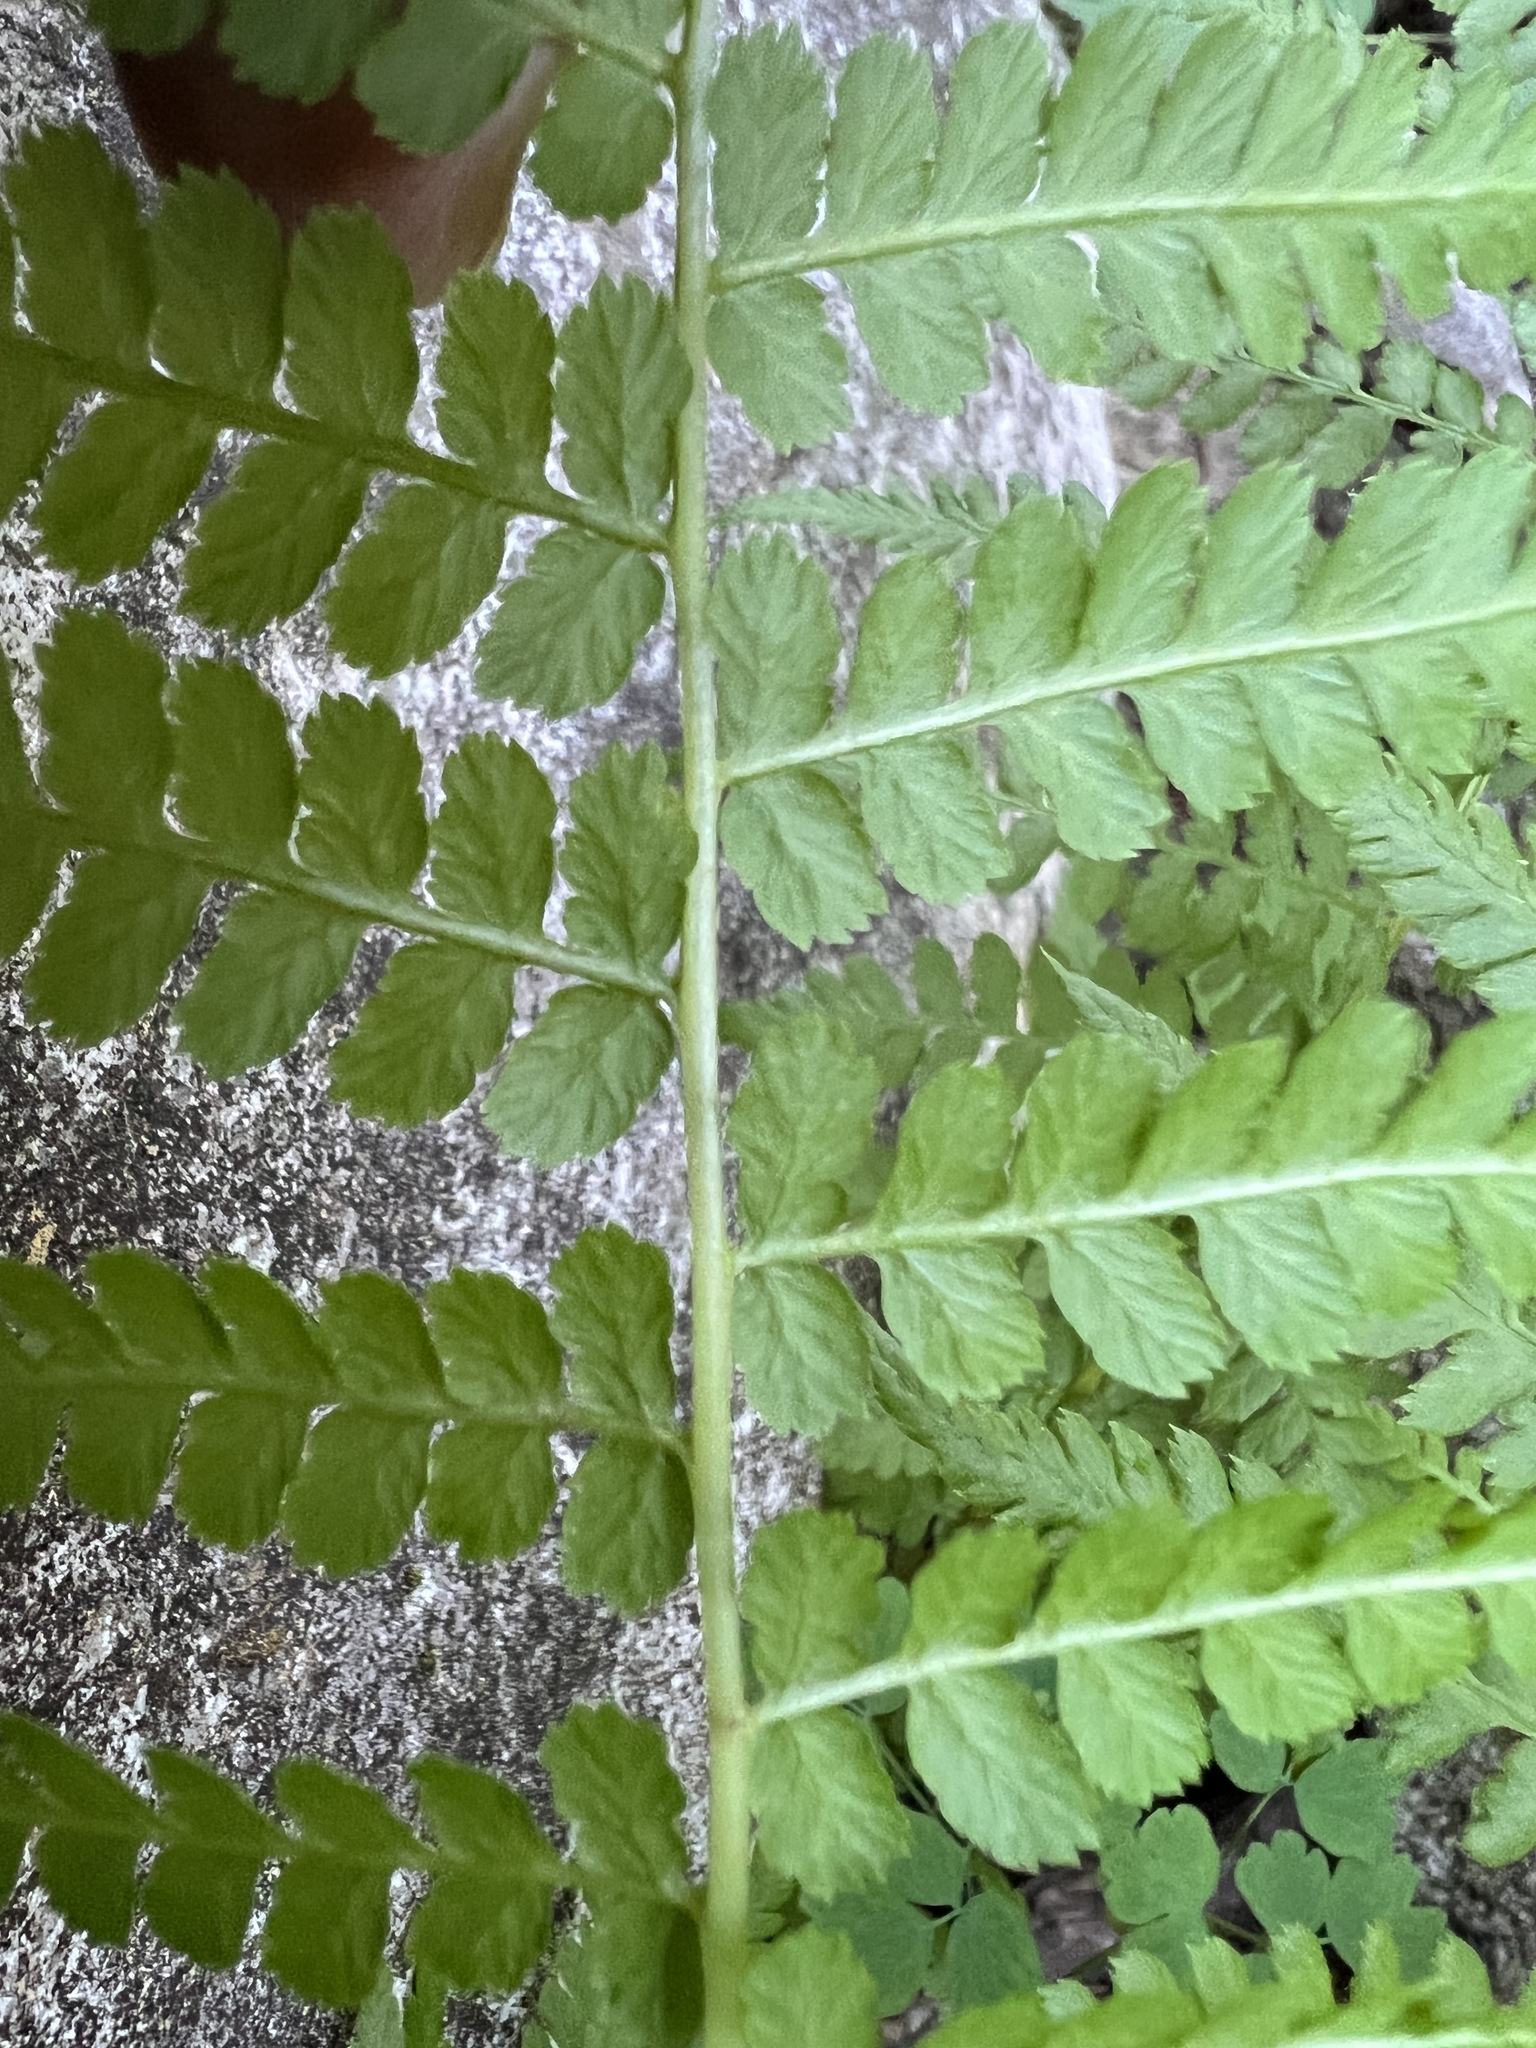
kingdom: Plantae
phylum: Tracheophyta
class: Polypodiopsida
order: Polypodiales
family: Athyriaceae
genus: Athyrium
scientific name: Athyrium cyclosorum
